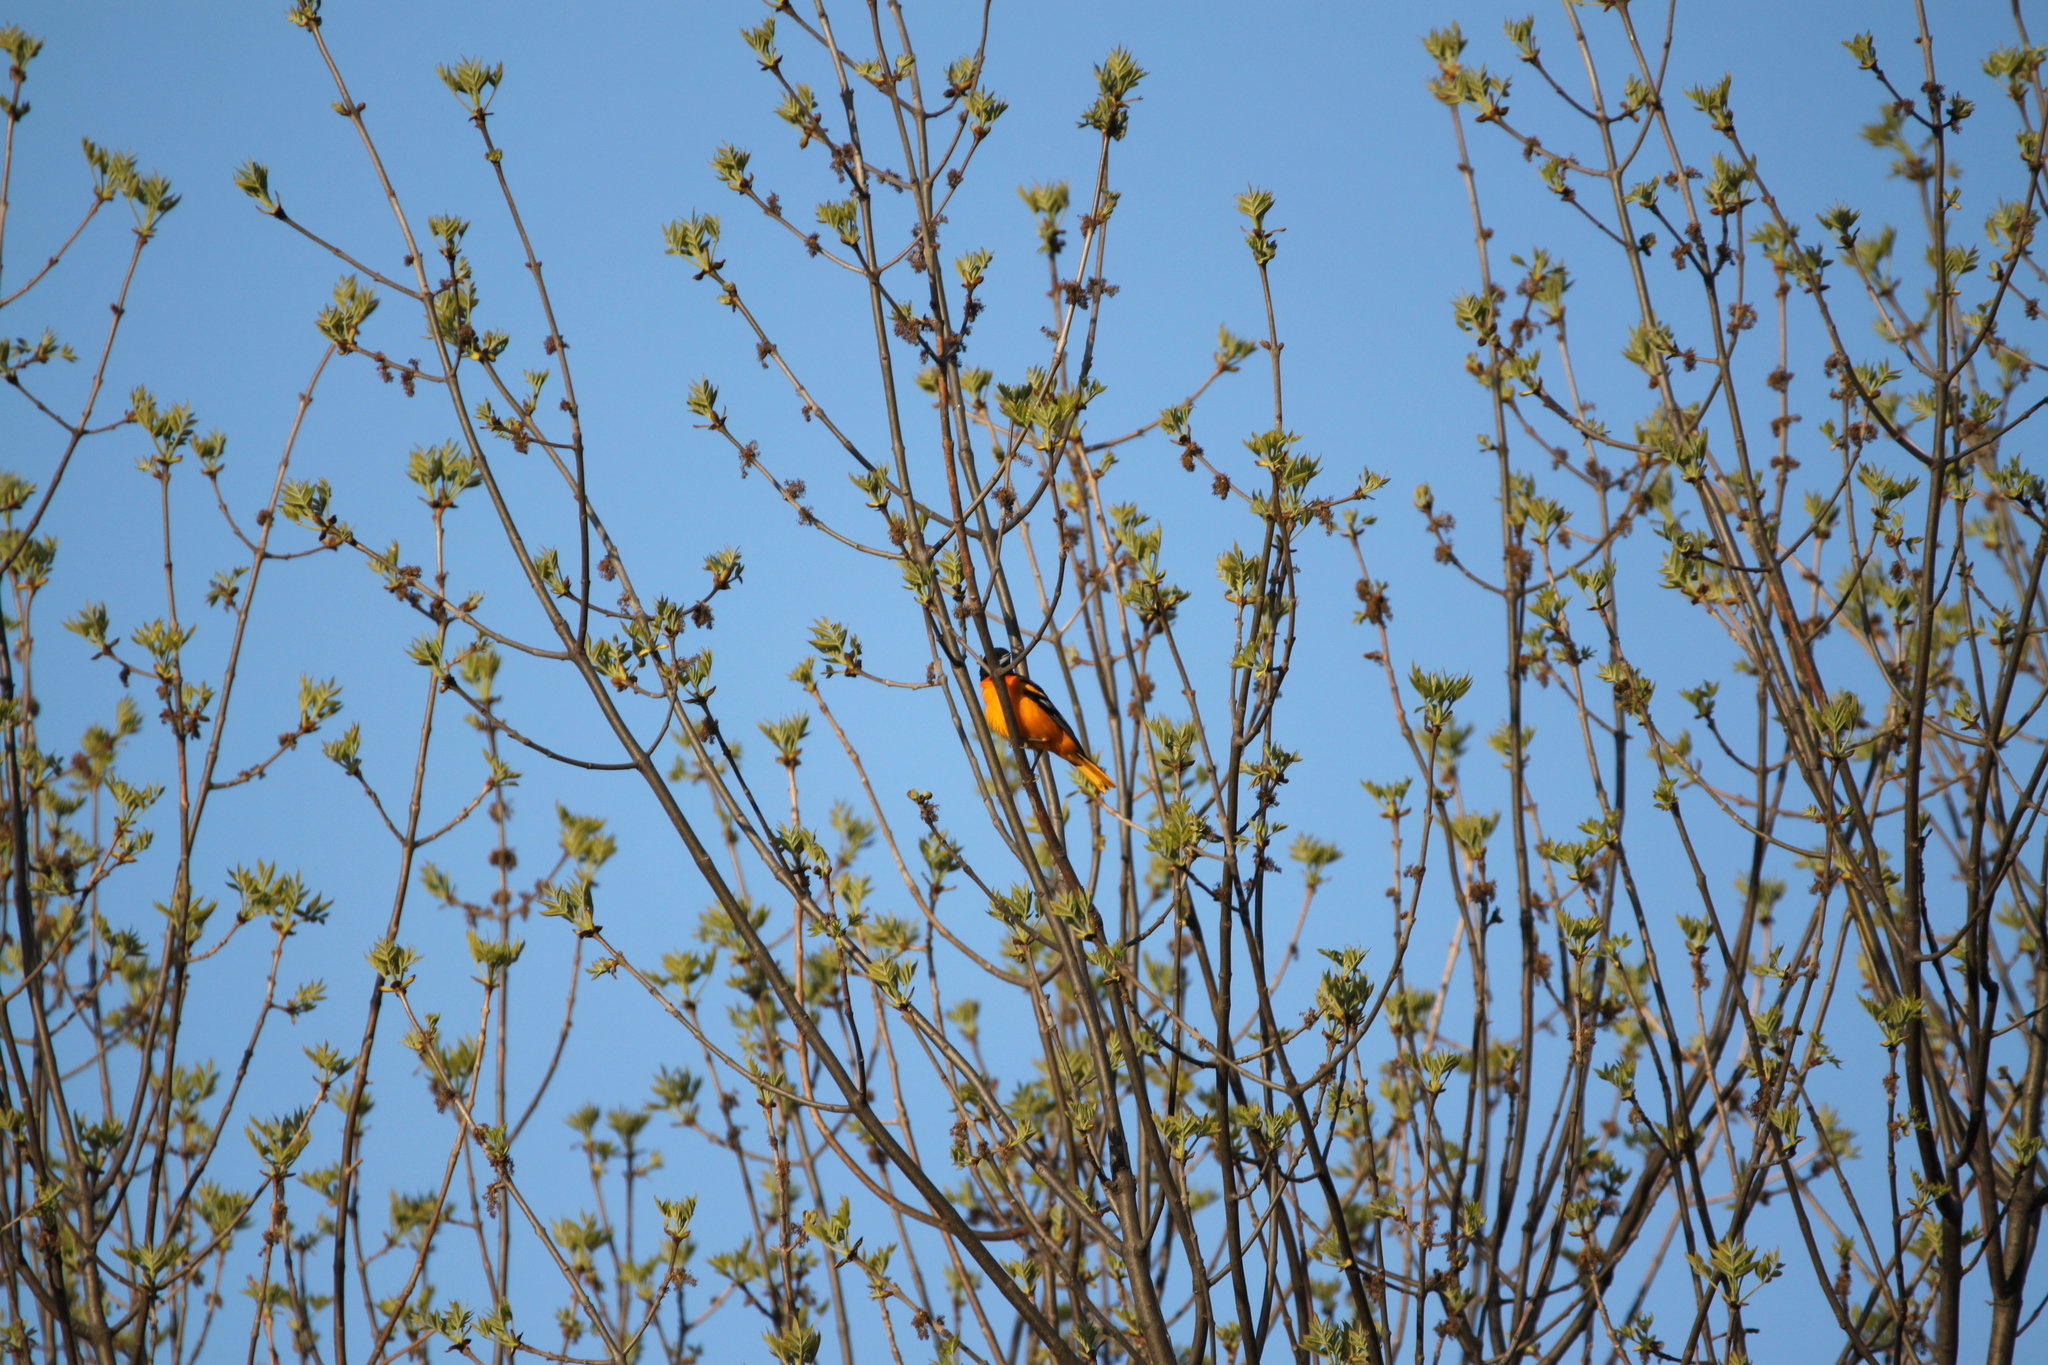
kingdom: Animalia
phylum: Chordata
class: Aves
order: Passeriformes
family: Icteridae
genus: Icterus
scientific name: Icterus galbula
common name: Baltimore oriole
